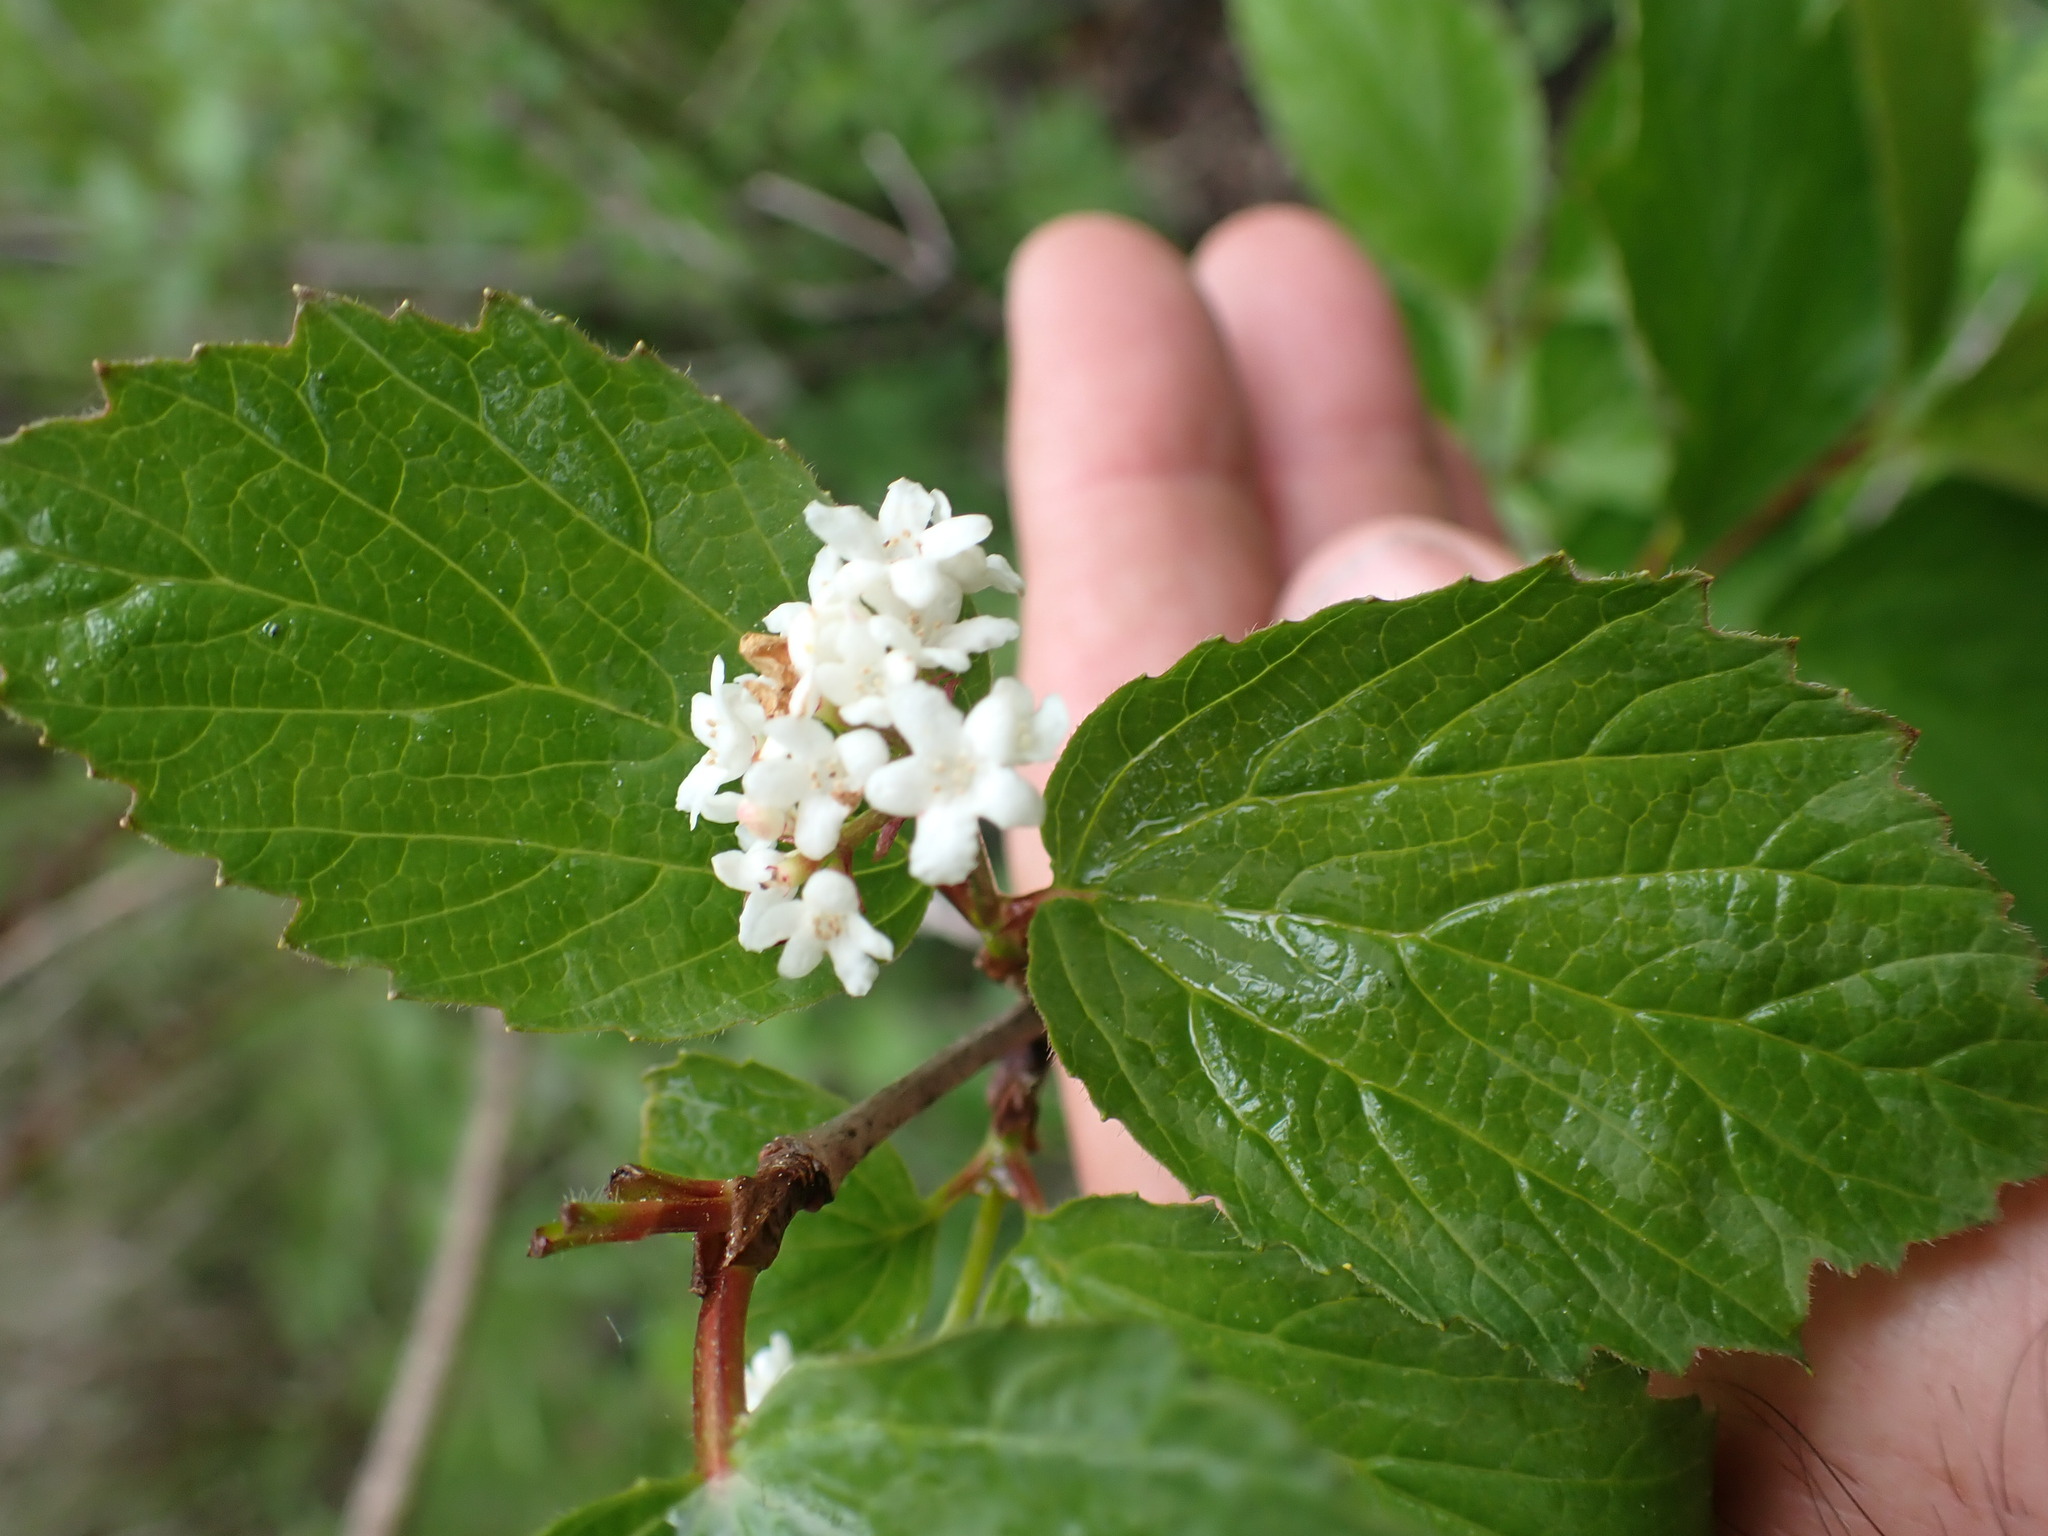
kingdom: Plantae
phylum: Tracheophyta
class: Magnoliopsida
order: Dipsacales
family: Viburnaceae
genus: Viburnum
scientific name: Viburnum edule
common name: Mooseberry
